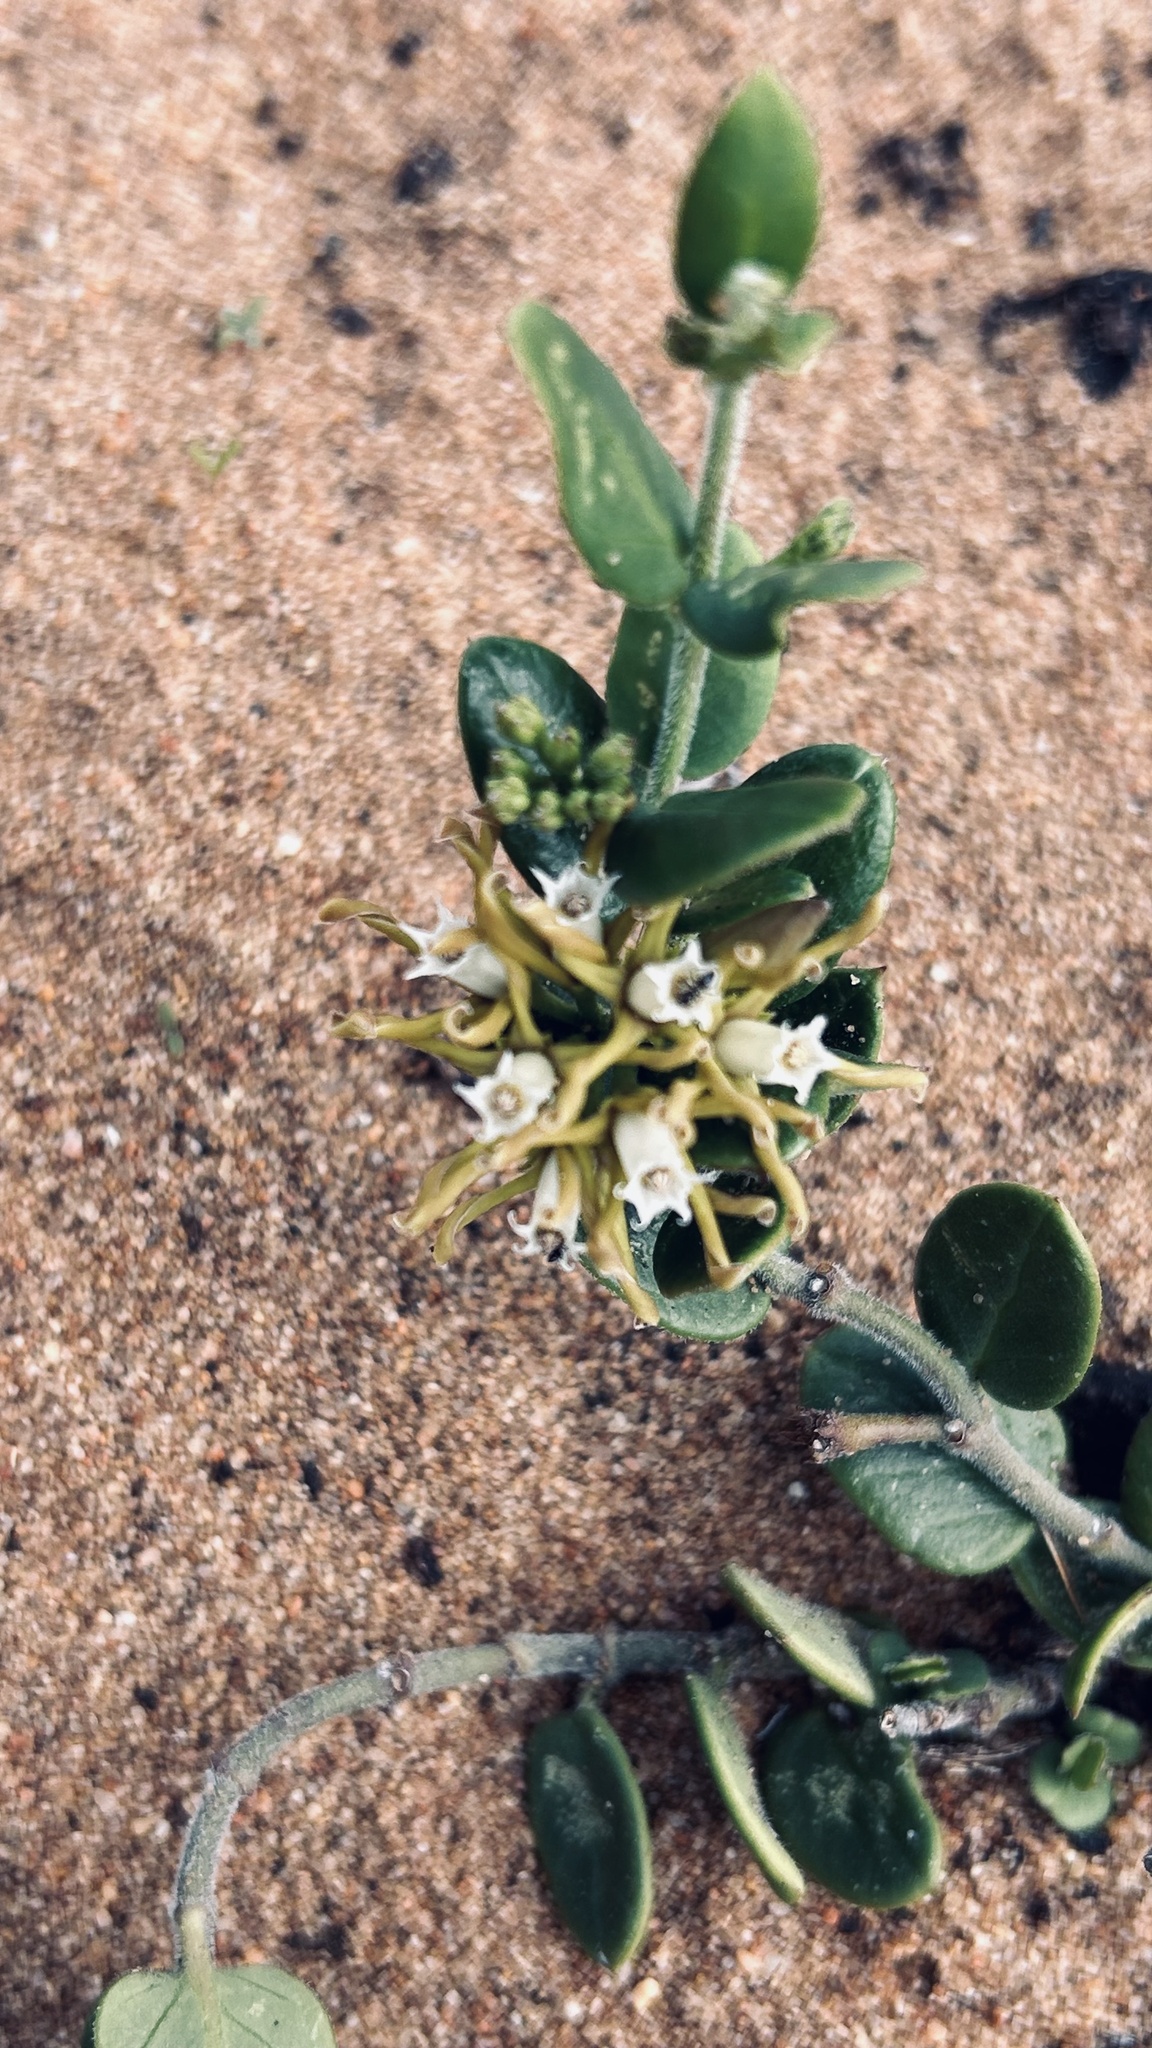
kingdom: Plantae
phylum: Tracheophyta
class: Magnoliopsida
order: Gentianales
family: Apocynaceae
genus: Cynanchum
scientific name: Cynanchum africanum
